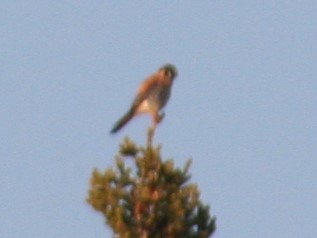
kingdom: Animalia
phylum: Chordata
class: Aves
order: Falconiformes
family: Falconidae
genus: Falco
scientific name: Falco sparverius
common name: American kestrel
